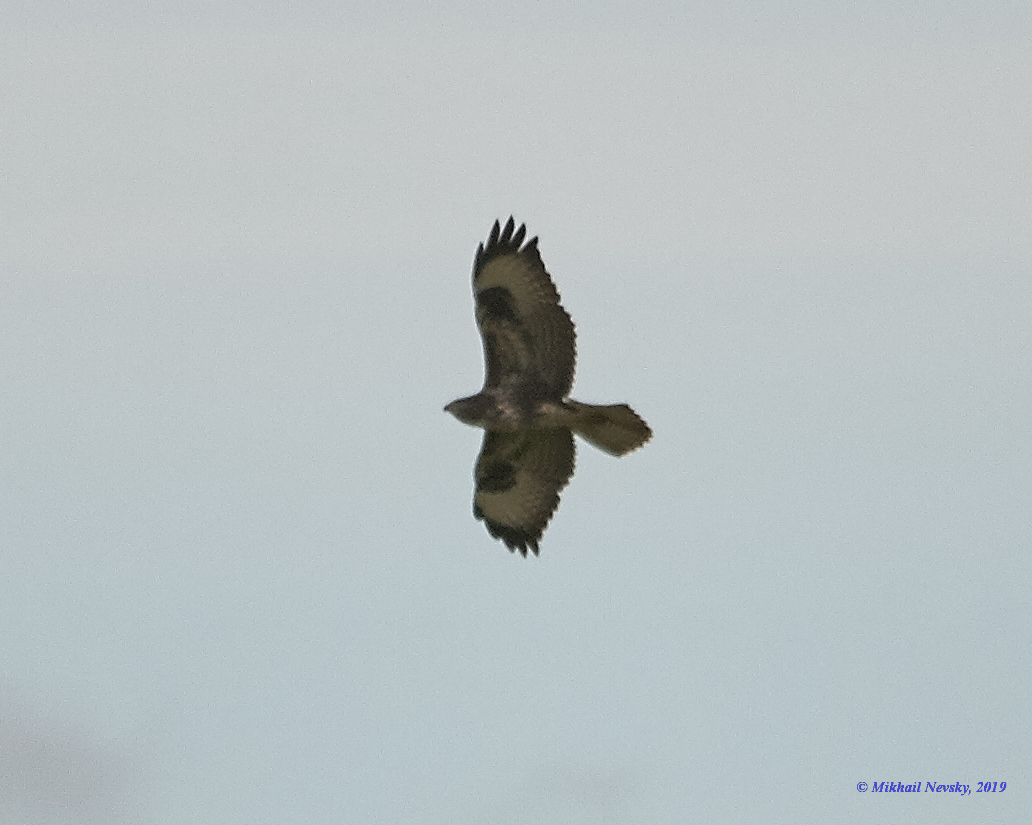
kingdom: Animalia
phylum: Chordata
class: Aves
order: Accipitriformes
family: Accipitridae
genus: Buteo
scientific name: Buteo buteo
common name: Common buzzard
